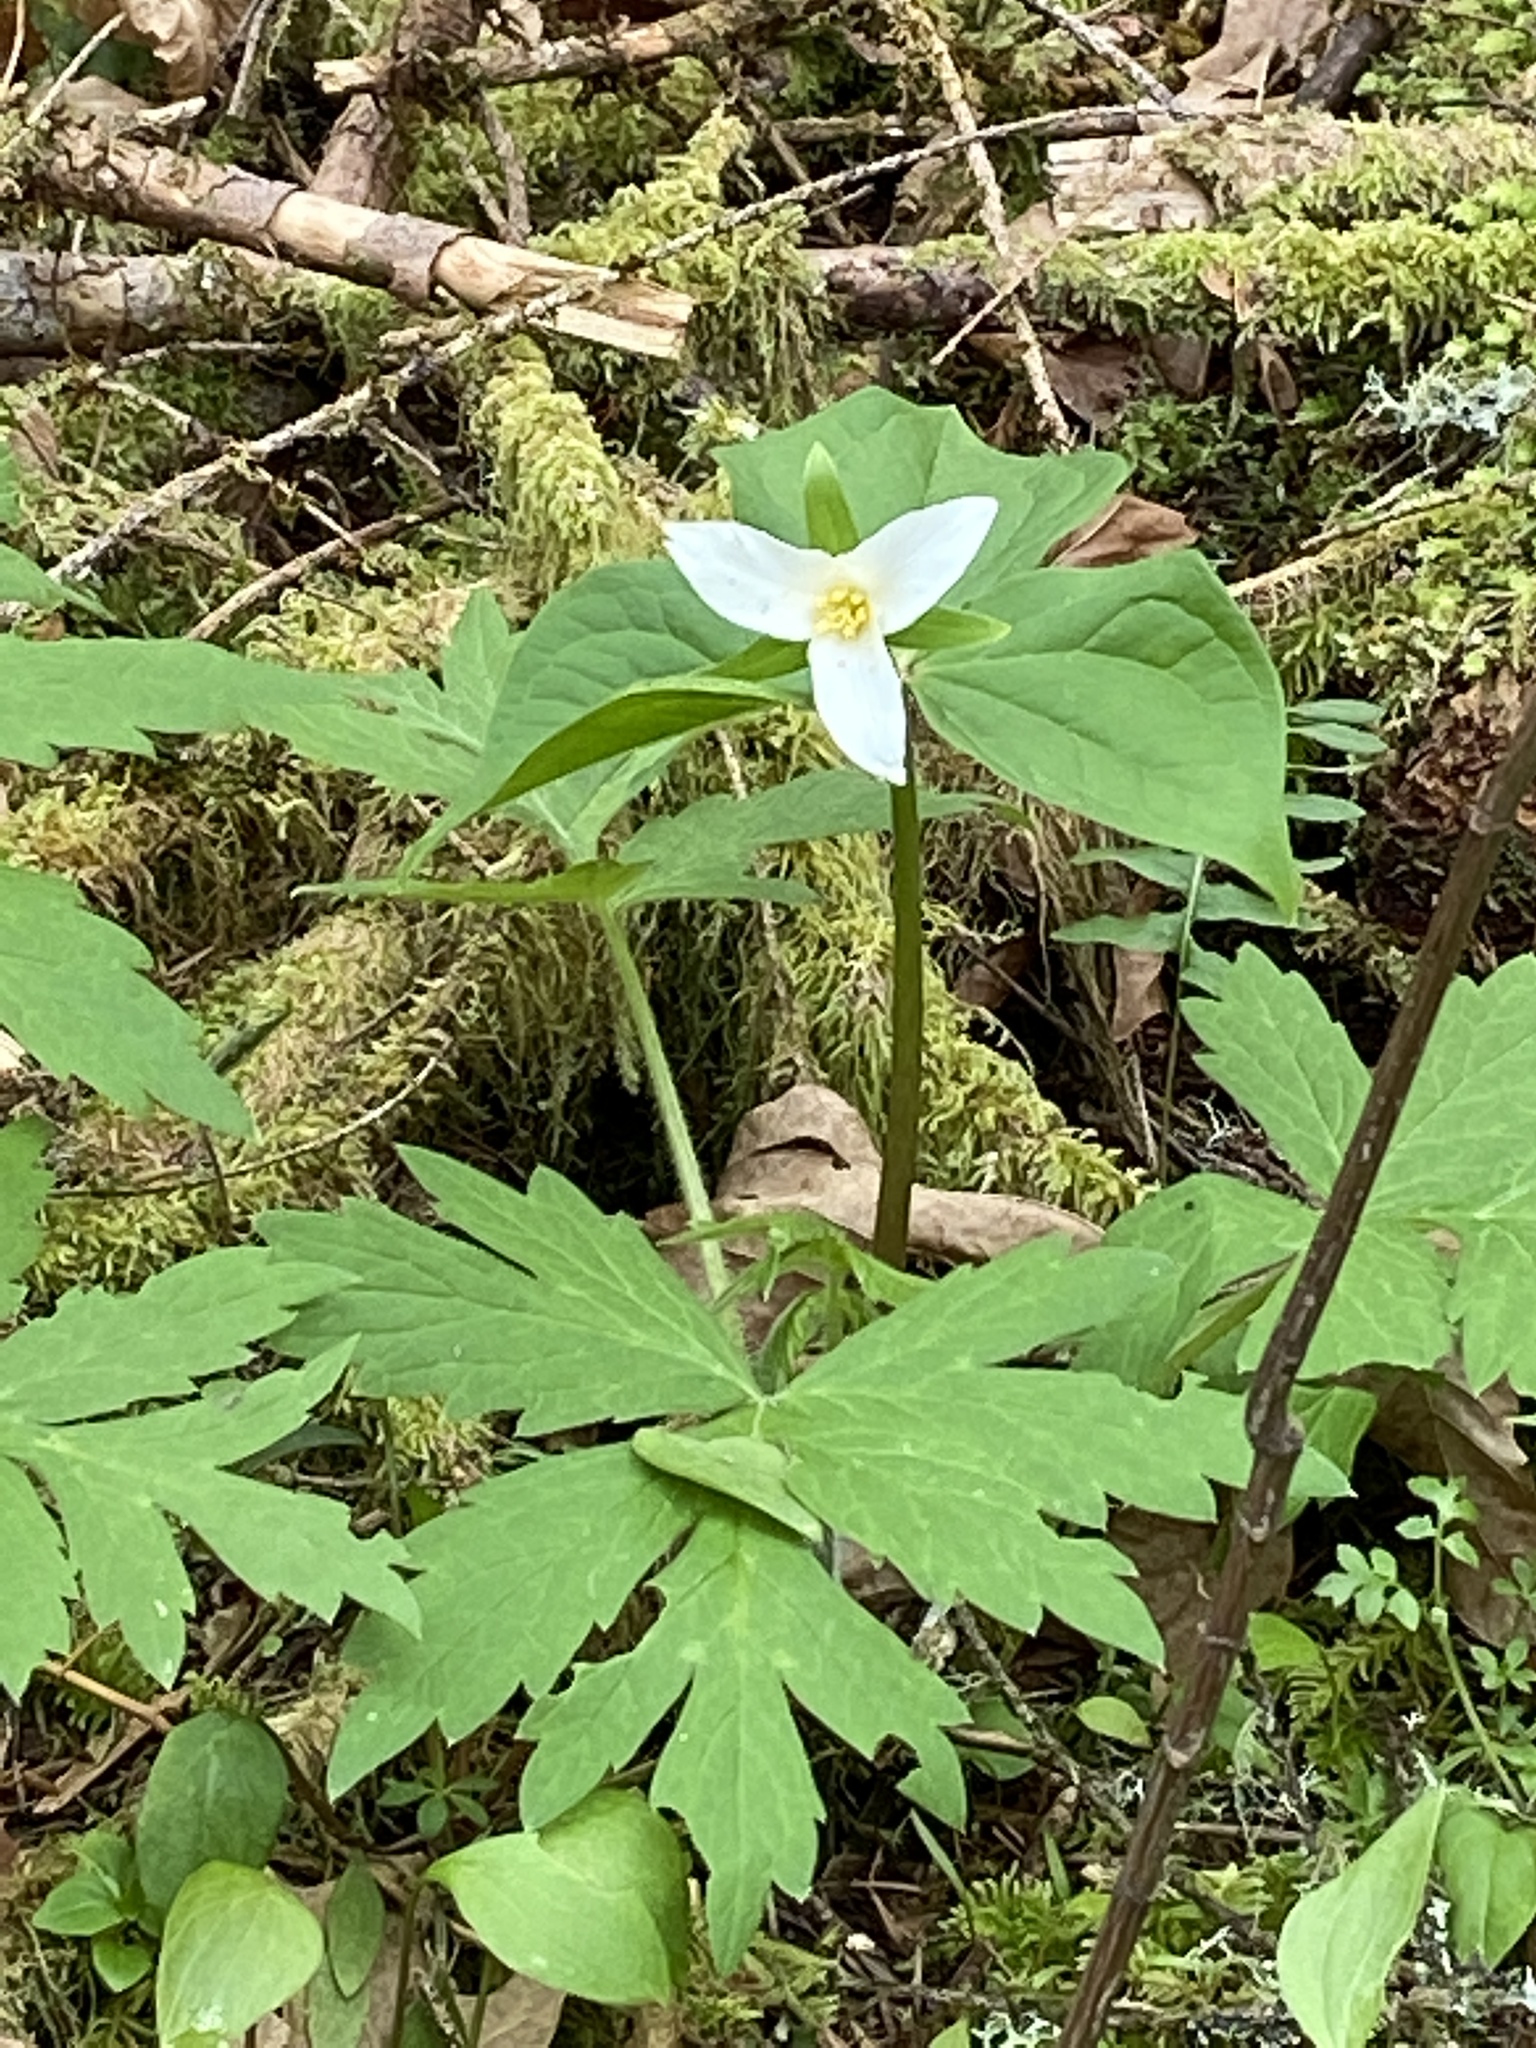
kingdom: Plantae
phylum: Tracheophyta
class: Liliopsida
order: Liliales
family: Melanthiaceae
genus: Trillium
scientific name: Trillium ovatum
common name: Pacific trillium
